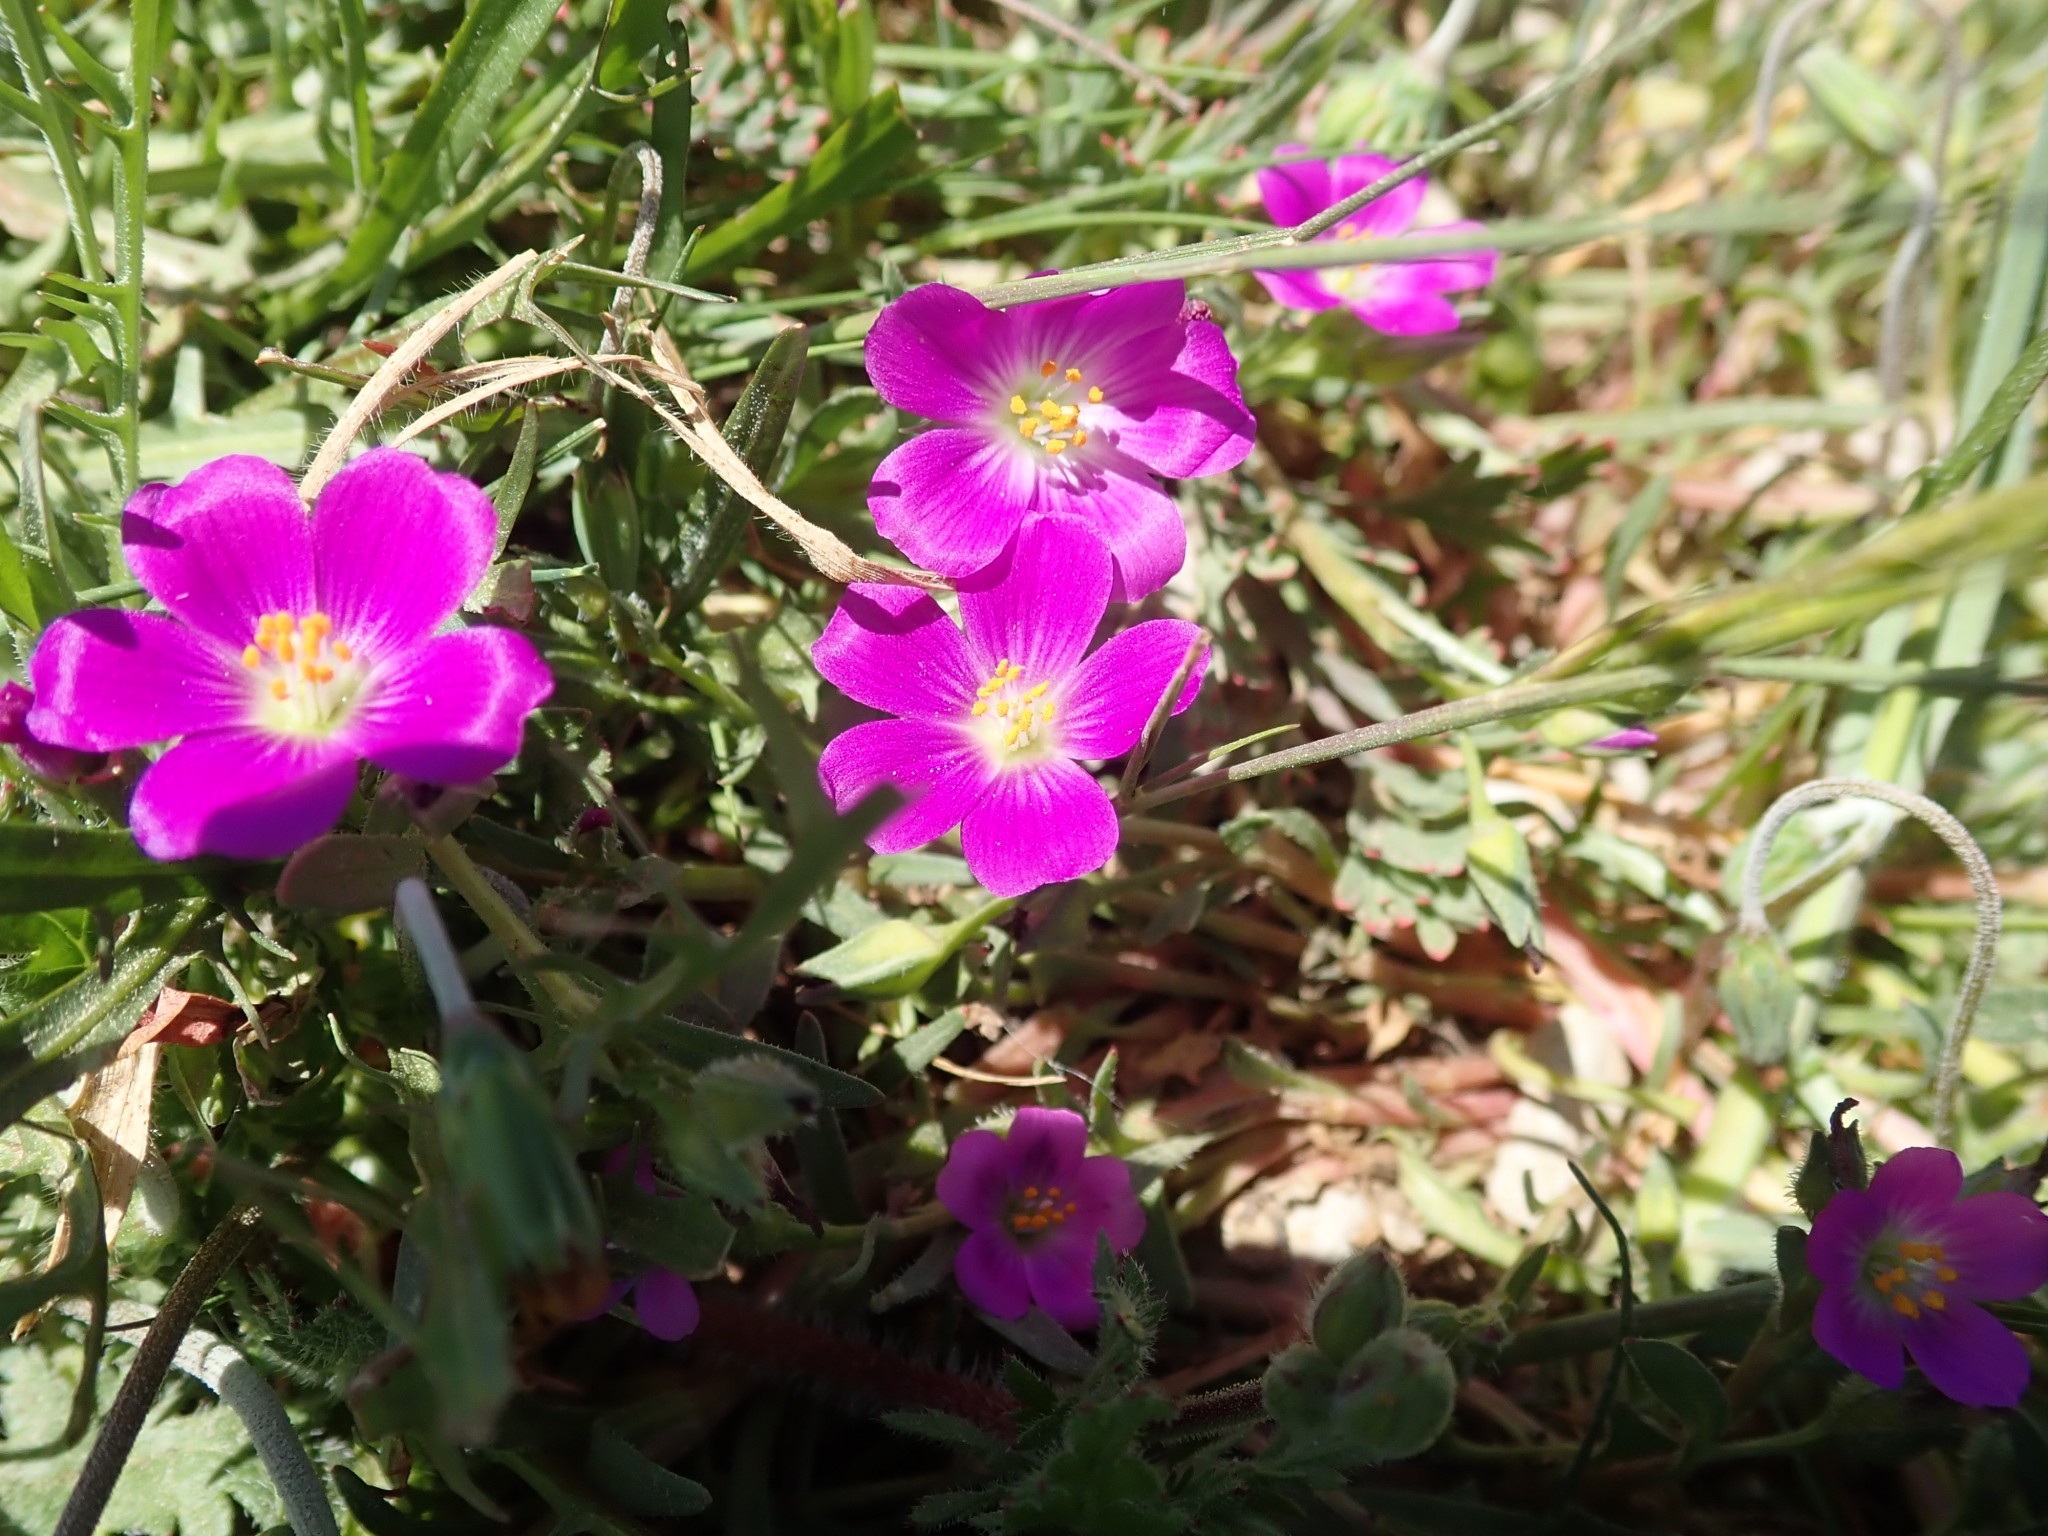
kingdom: Plantae
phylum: Tracheophyta
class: Magnoliopsida
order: Caryophyllales
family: Montiaceae
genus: Calandrinia
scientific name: Calandrinia menziesii
